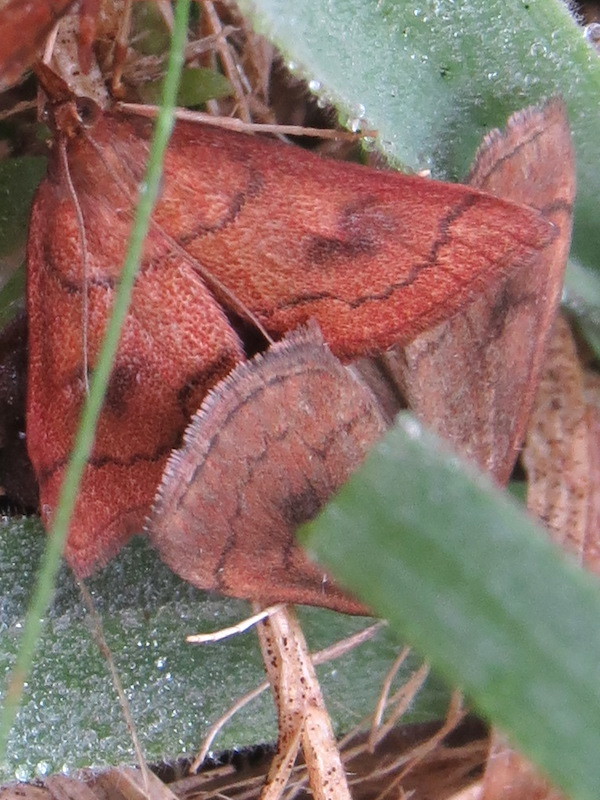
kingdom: Animalia
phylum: Arthropoda
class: Insecta
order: Lepidoptera
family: Crambidae
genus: Fumibotys
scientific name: Fumibotys fumalis
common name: Mint root borer moth
